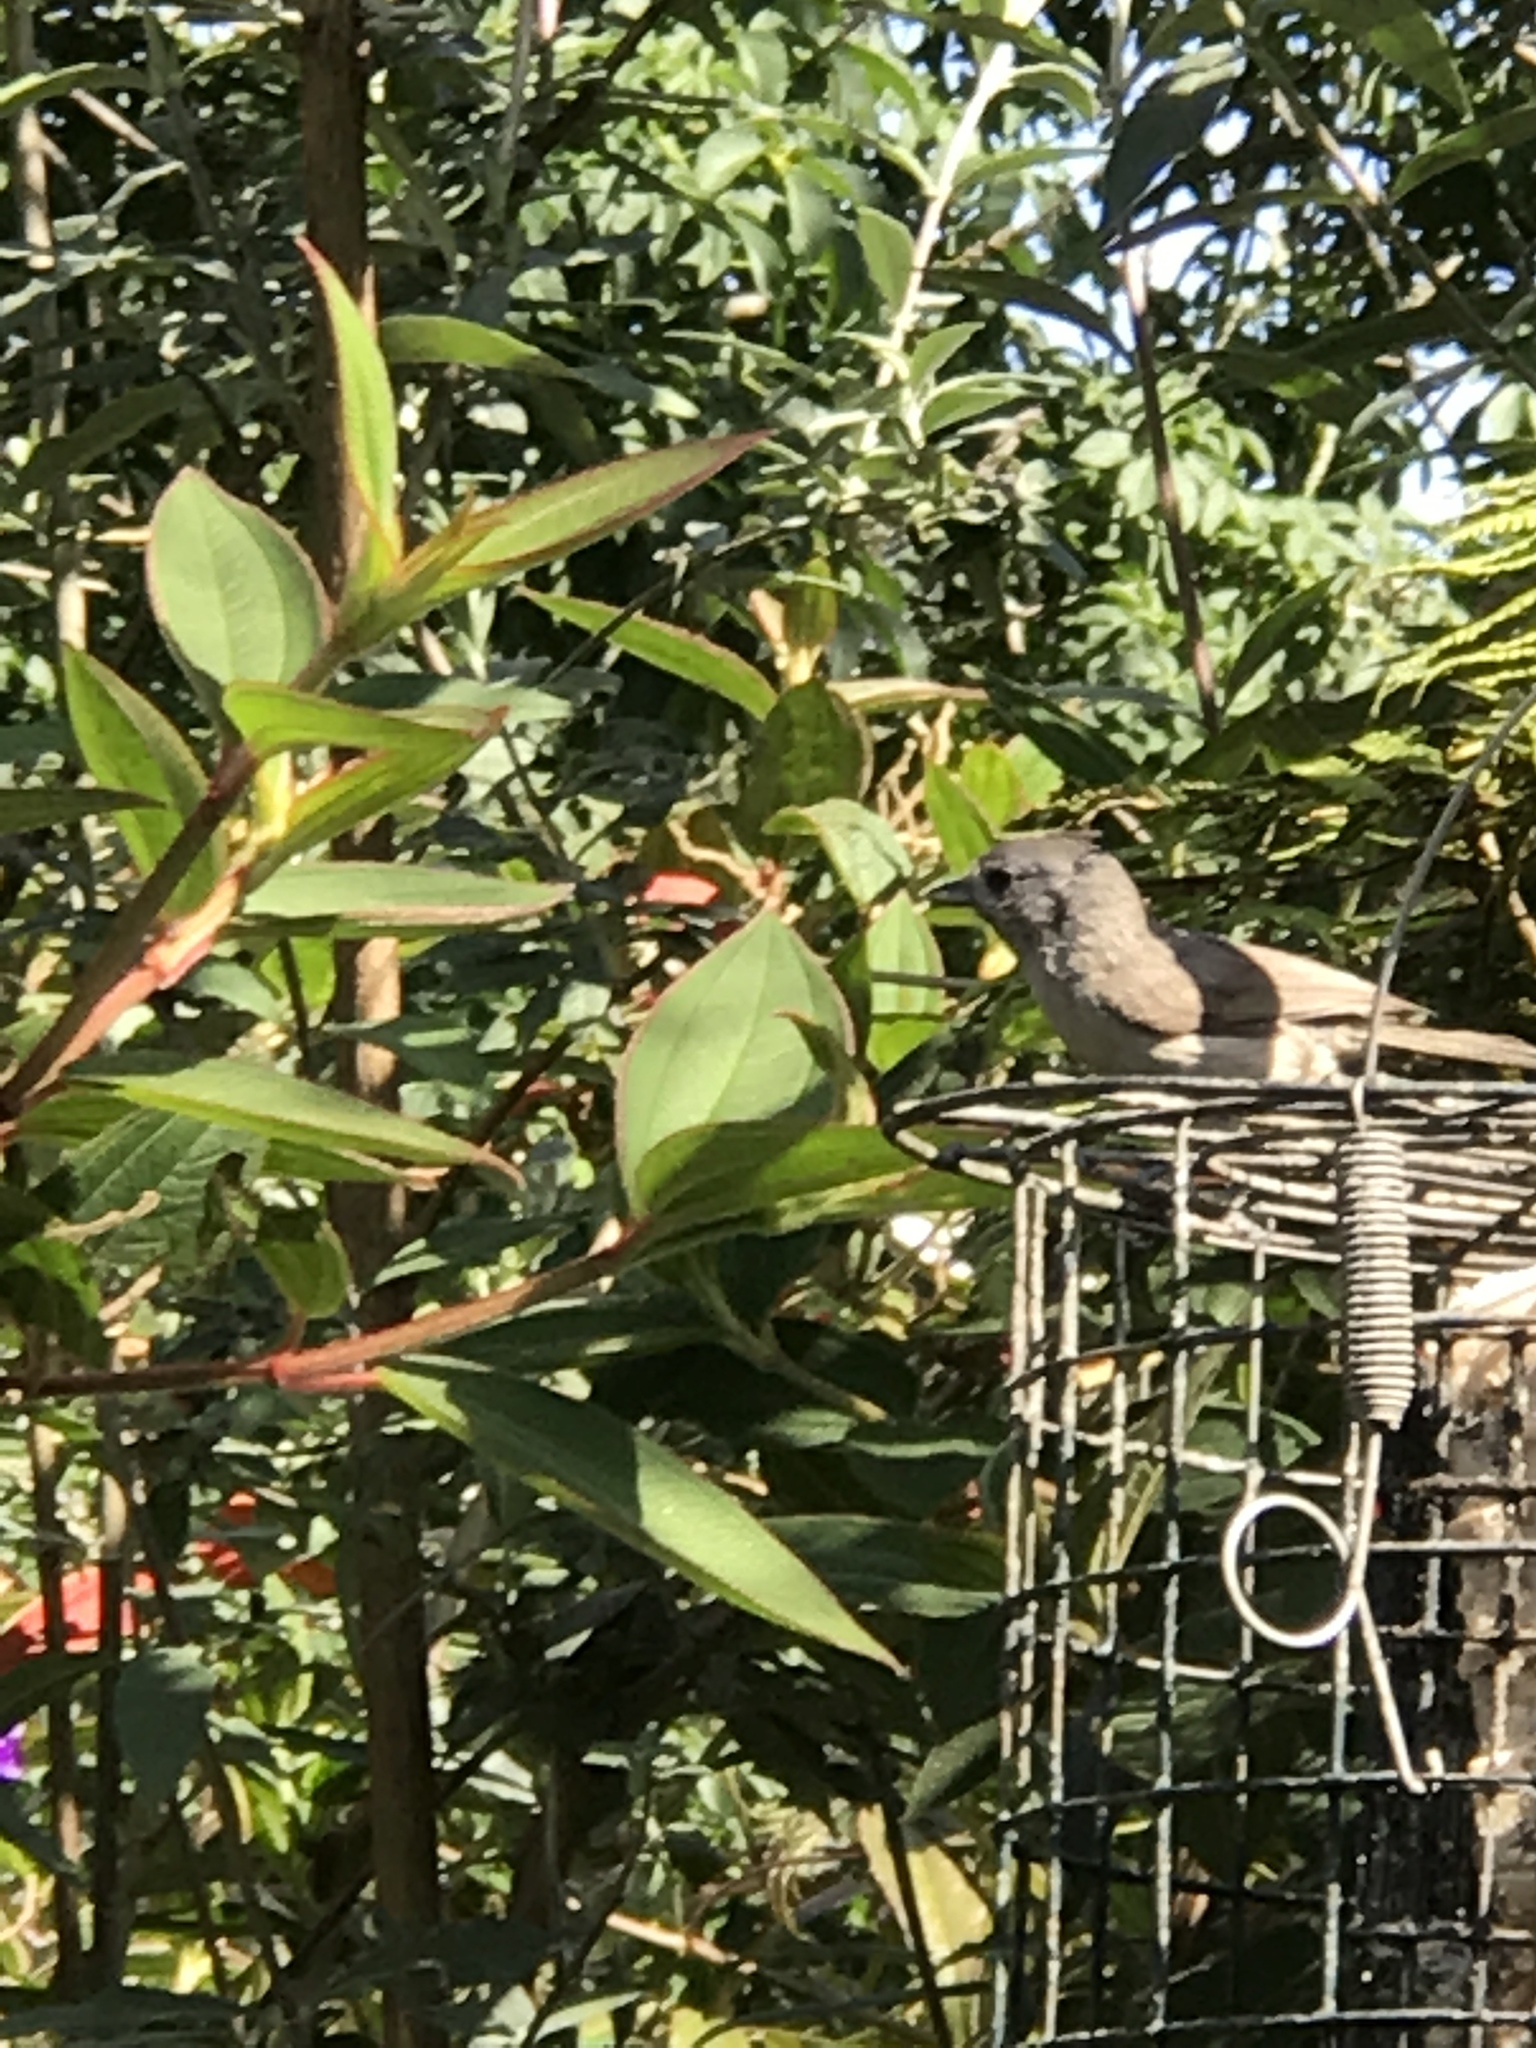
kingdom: Animalia
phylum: Chordata
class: Aves
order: Passeriformes
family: Paridae
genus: Baeolophus
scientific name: Baeolophus inornatus
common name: Oak titmouse
